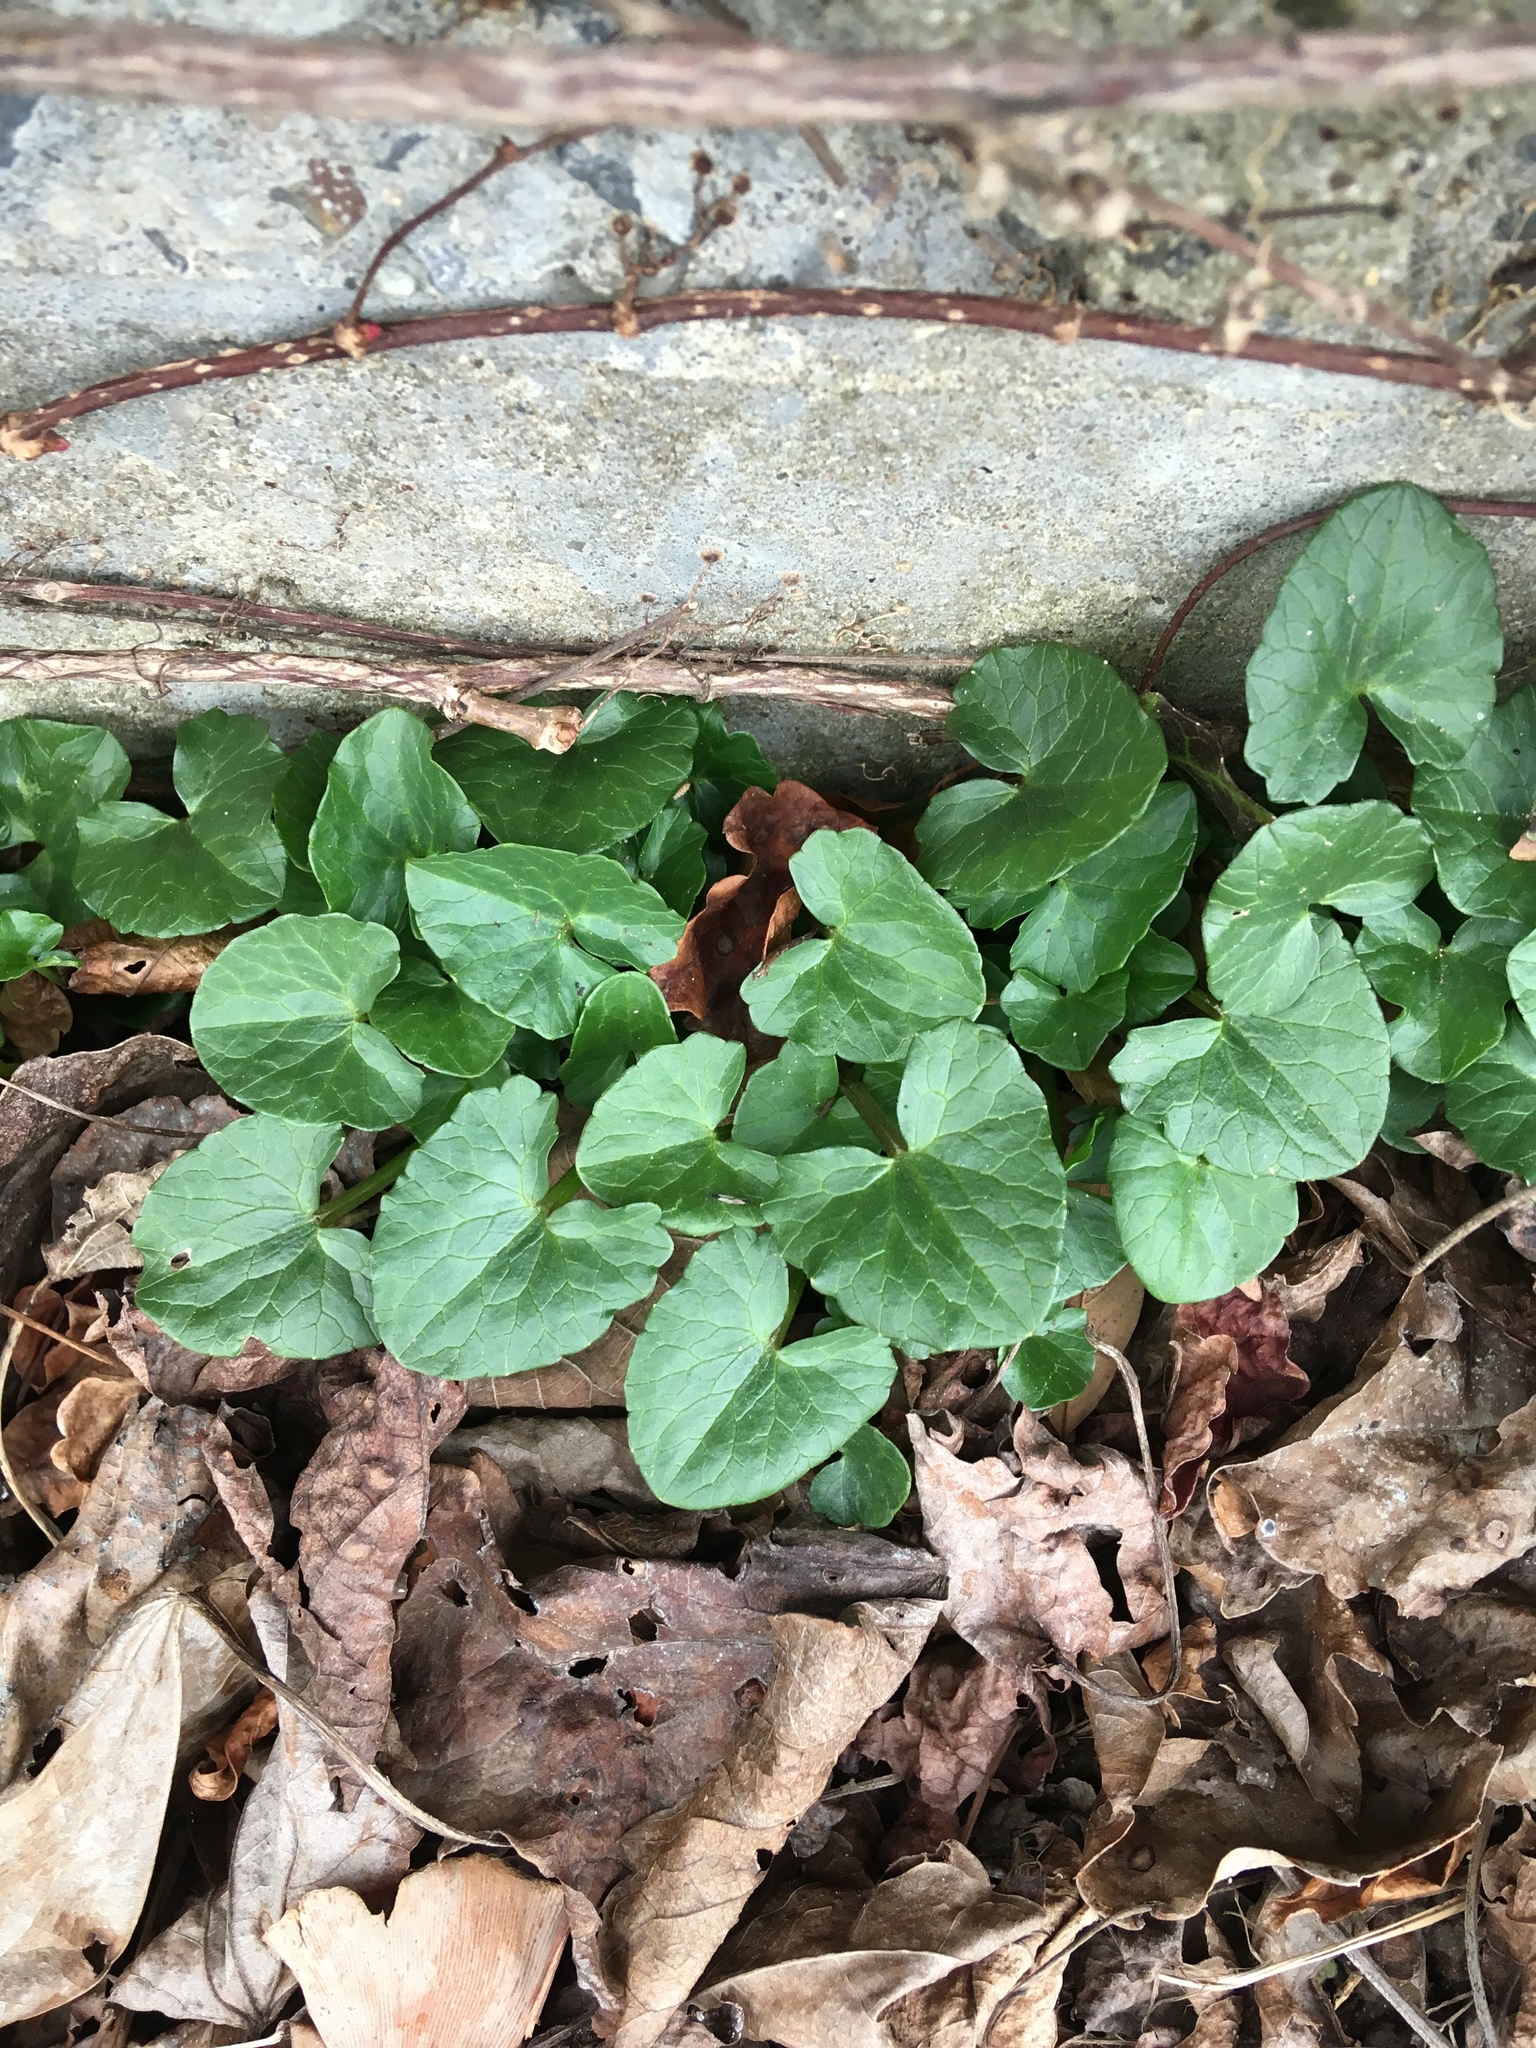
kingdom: Plantae
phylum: Tracheophyta
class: Magnoliopsida
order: Ranunculales
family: Ranunculaceae
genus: Ficaria
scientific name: Ficaria verna
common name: Lesser celandine
